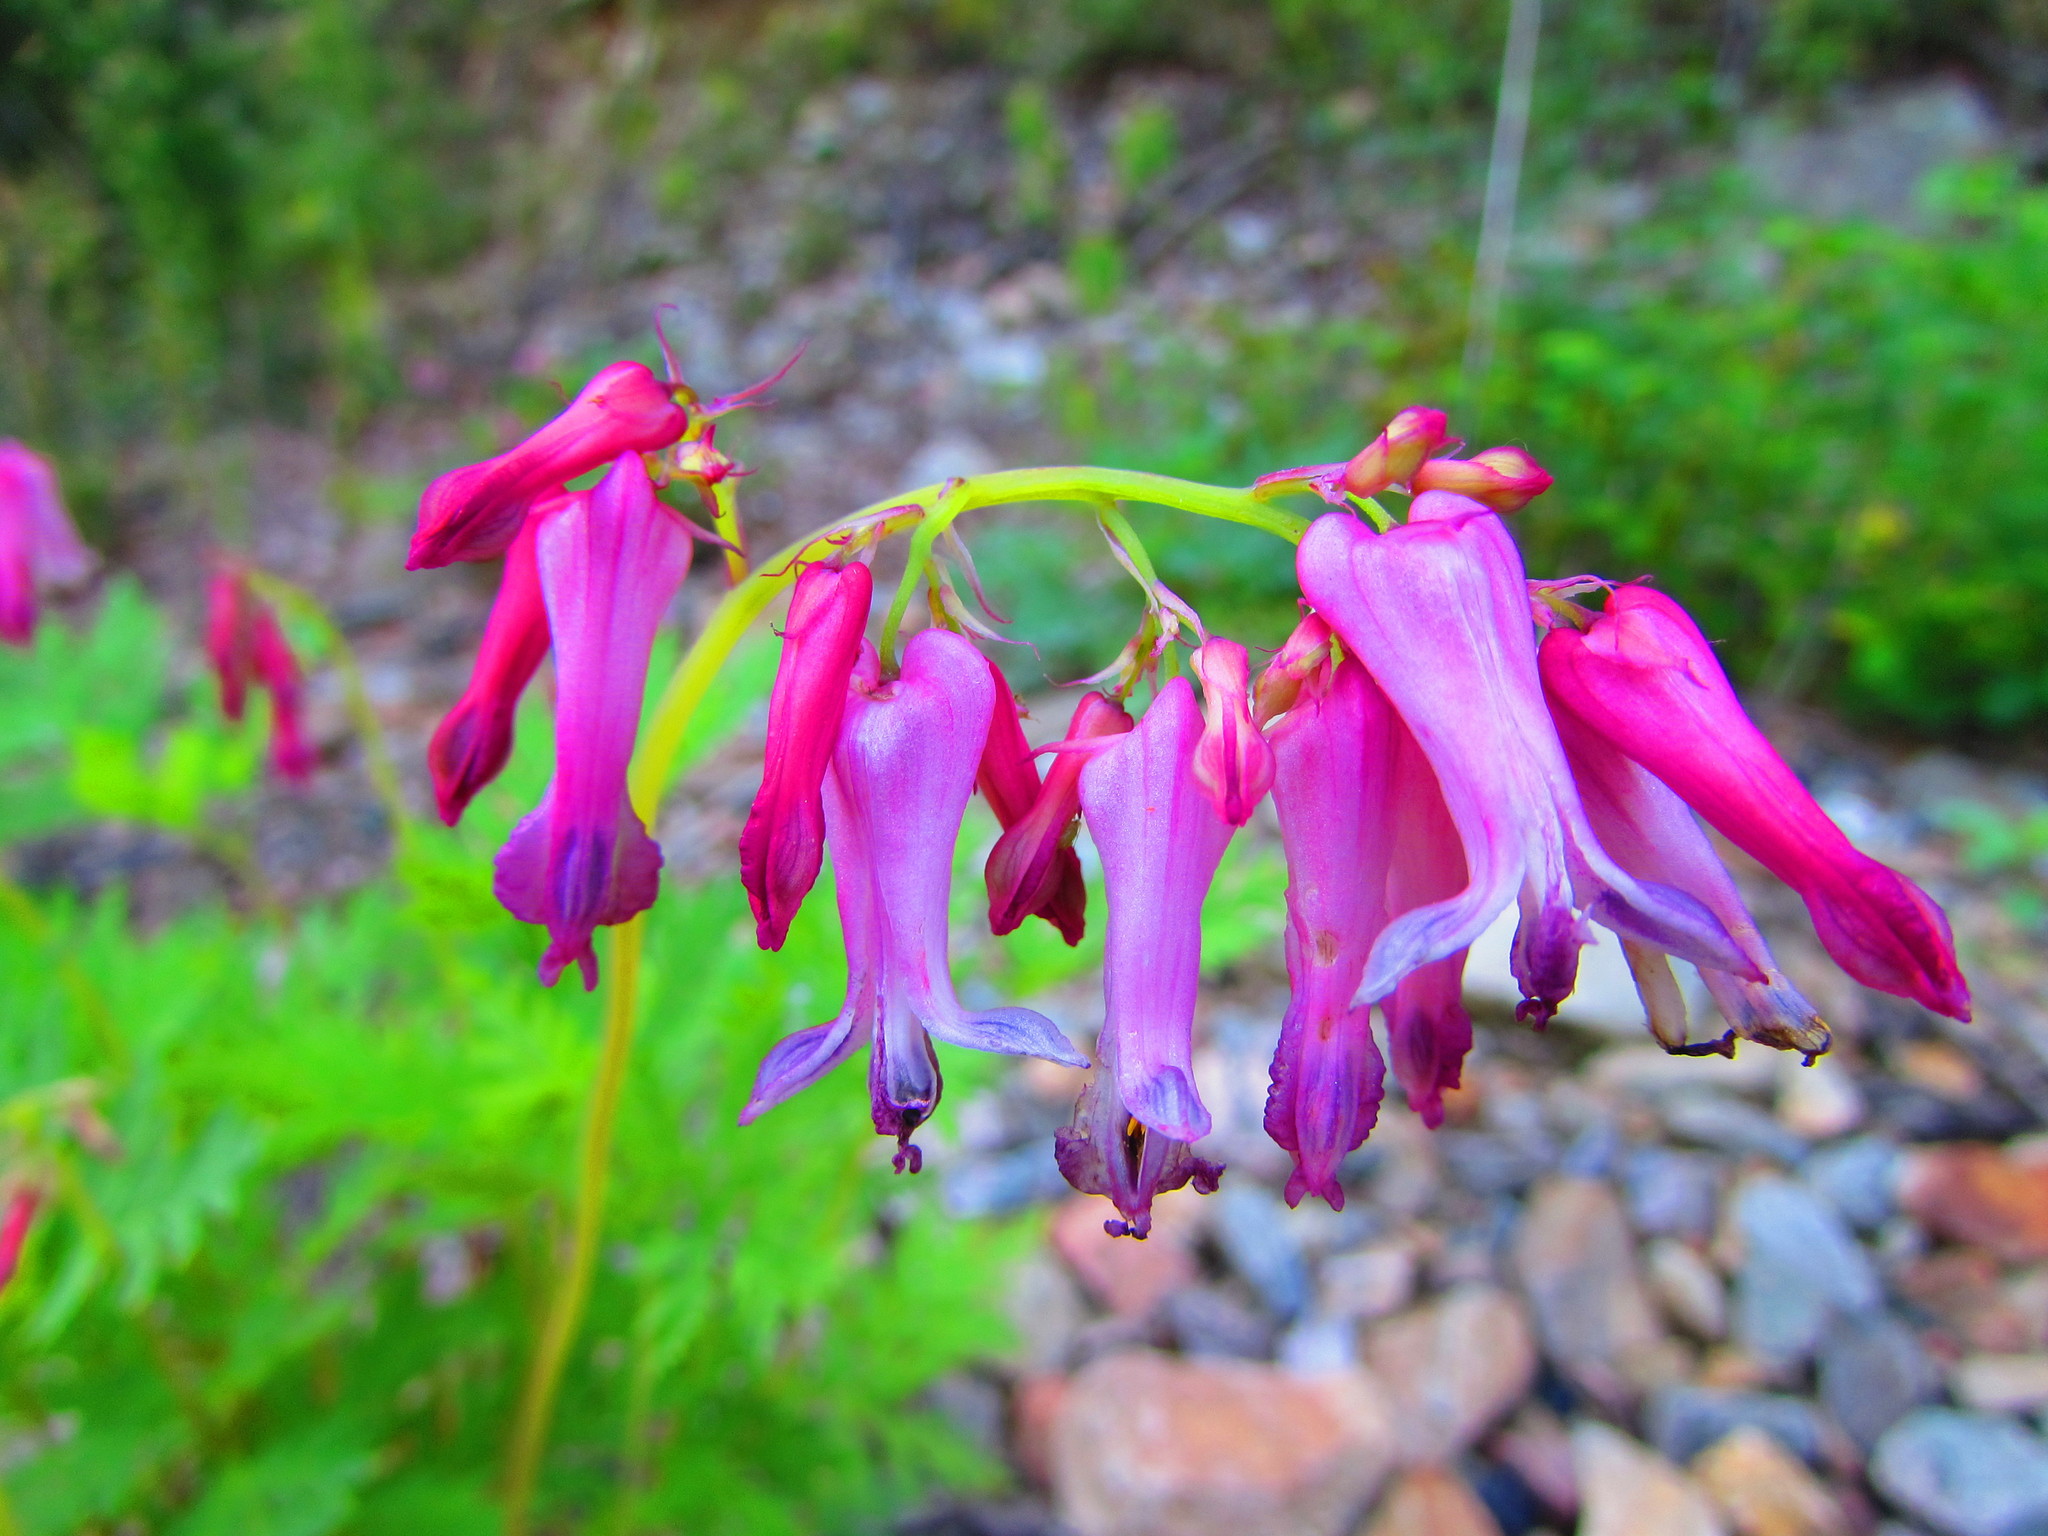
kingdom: Plantae
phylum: Tracheophyta
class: Magnoliopsida
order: Ranunculales
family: Papaveraceae
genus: Dicentra
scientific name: Dicentra eximia
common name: Turkey-corn
